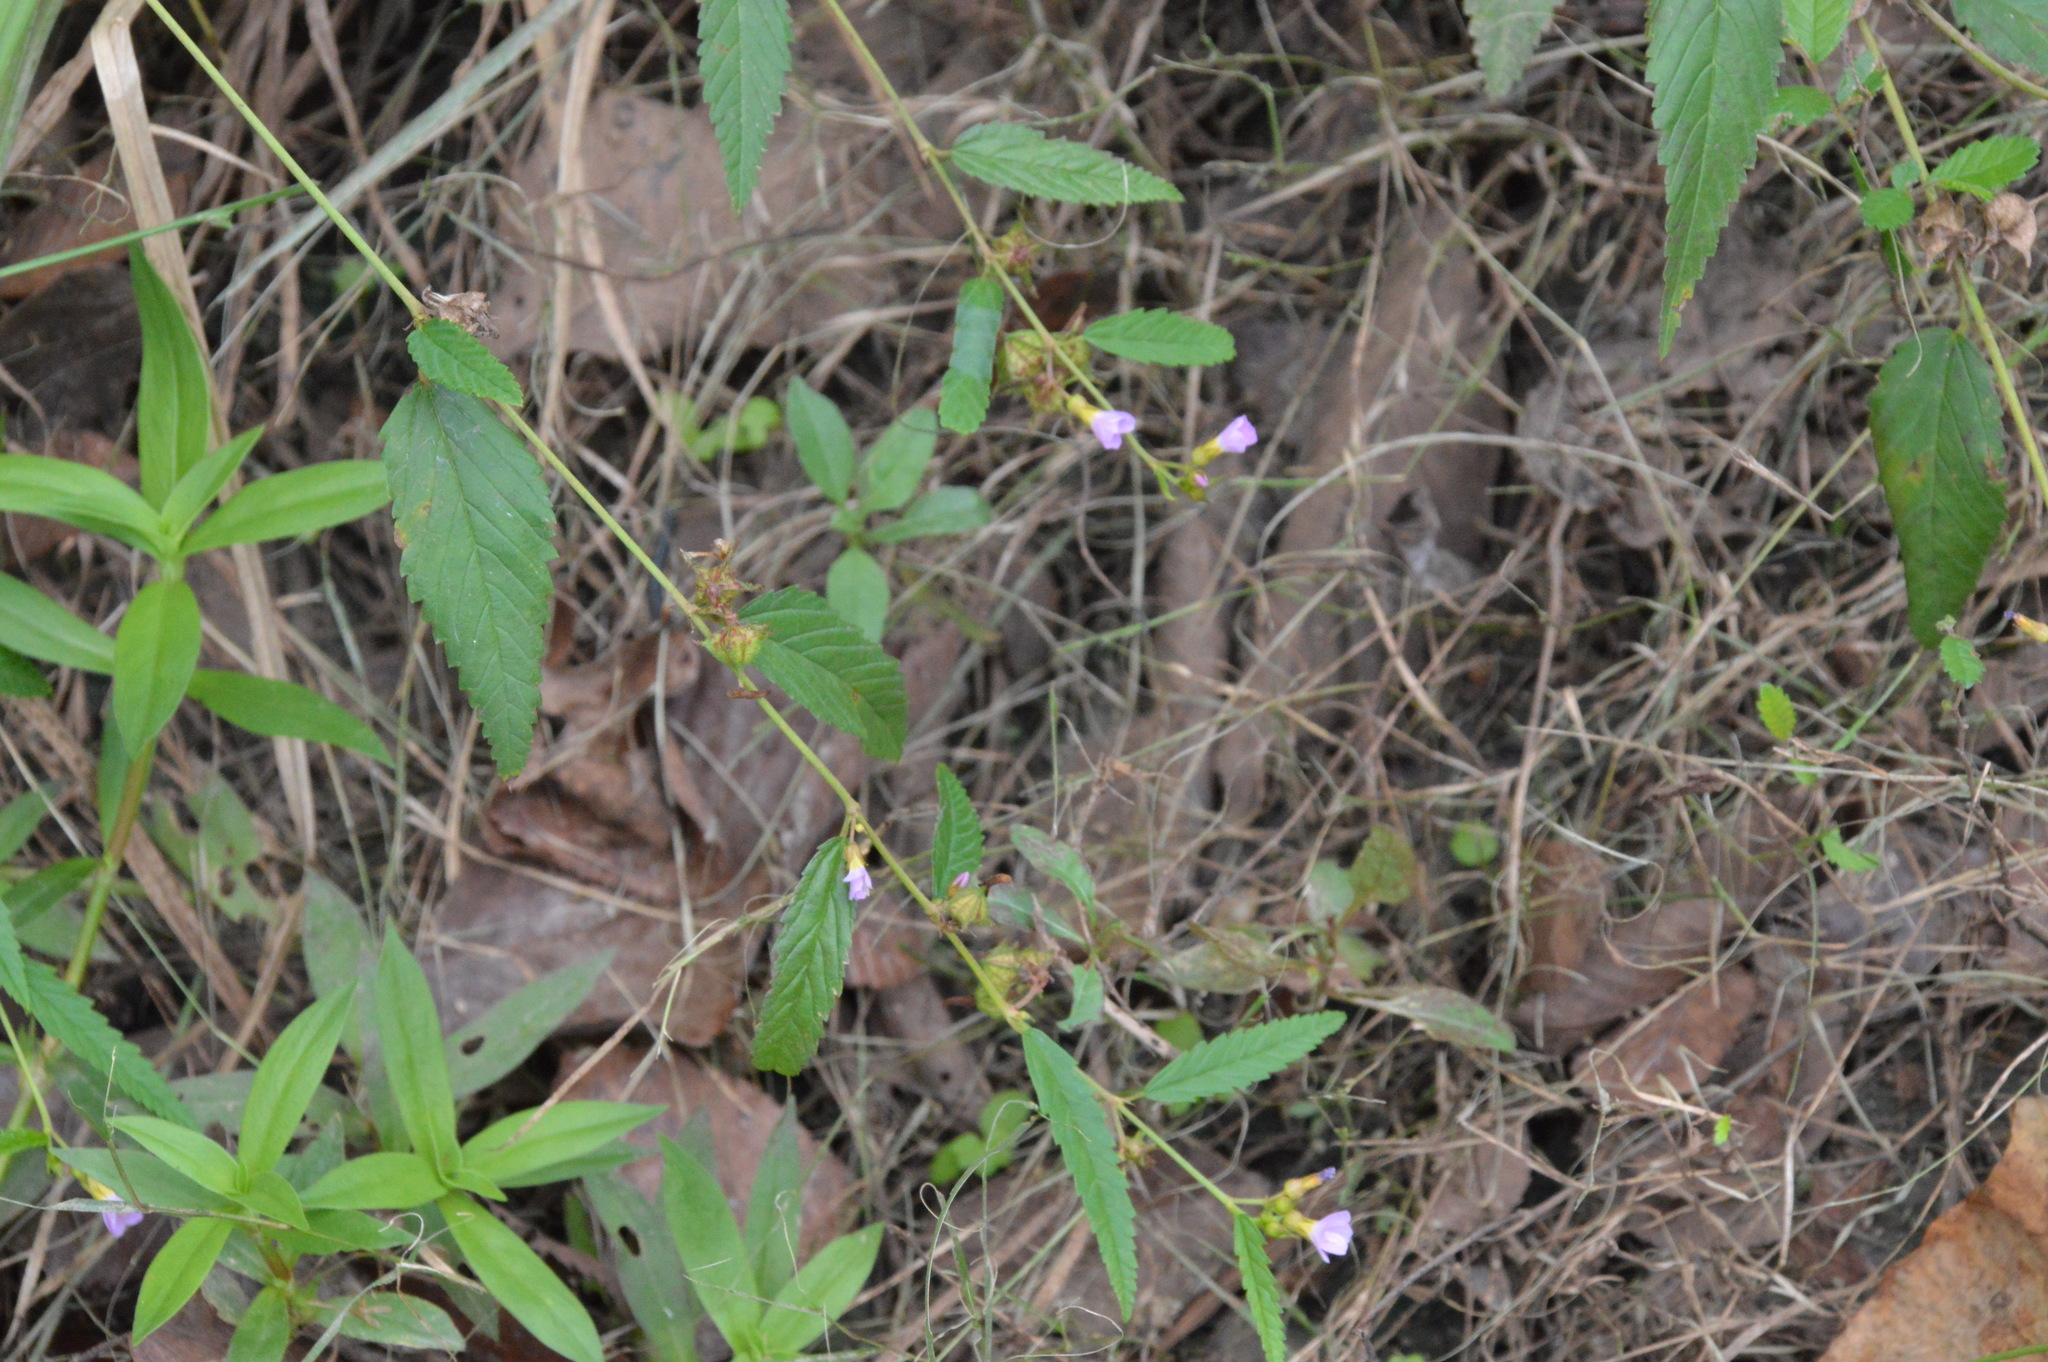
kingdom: Plantae
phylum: Tracheophyta
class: Magnoliopsida
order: Malvales
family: Malvaceae
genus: Melochia
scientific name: Melochia pyramidata
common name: Pyramidflower
